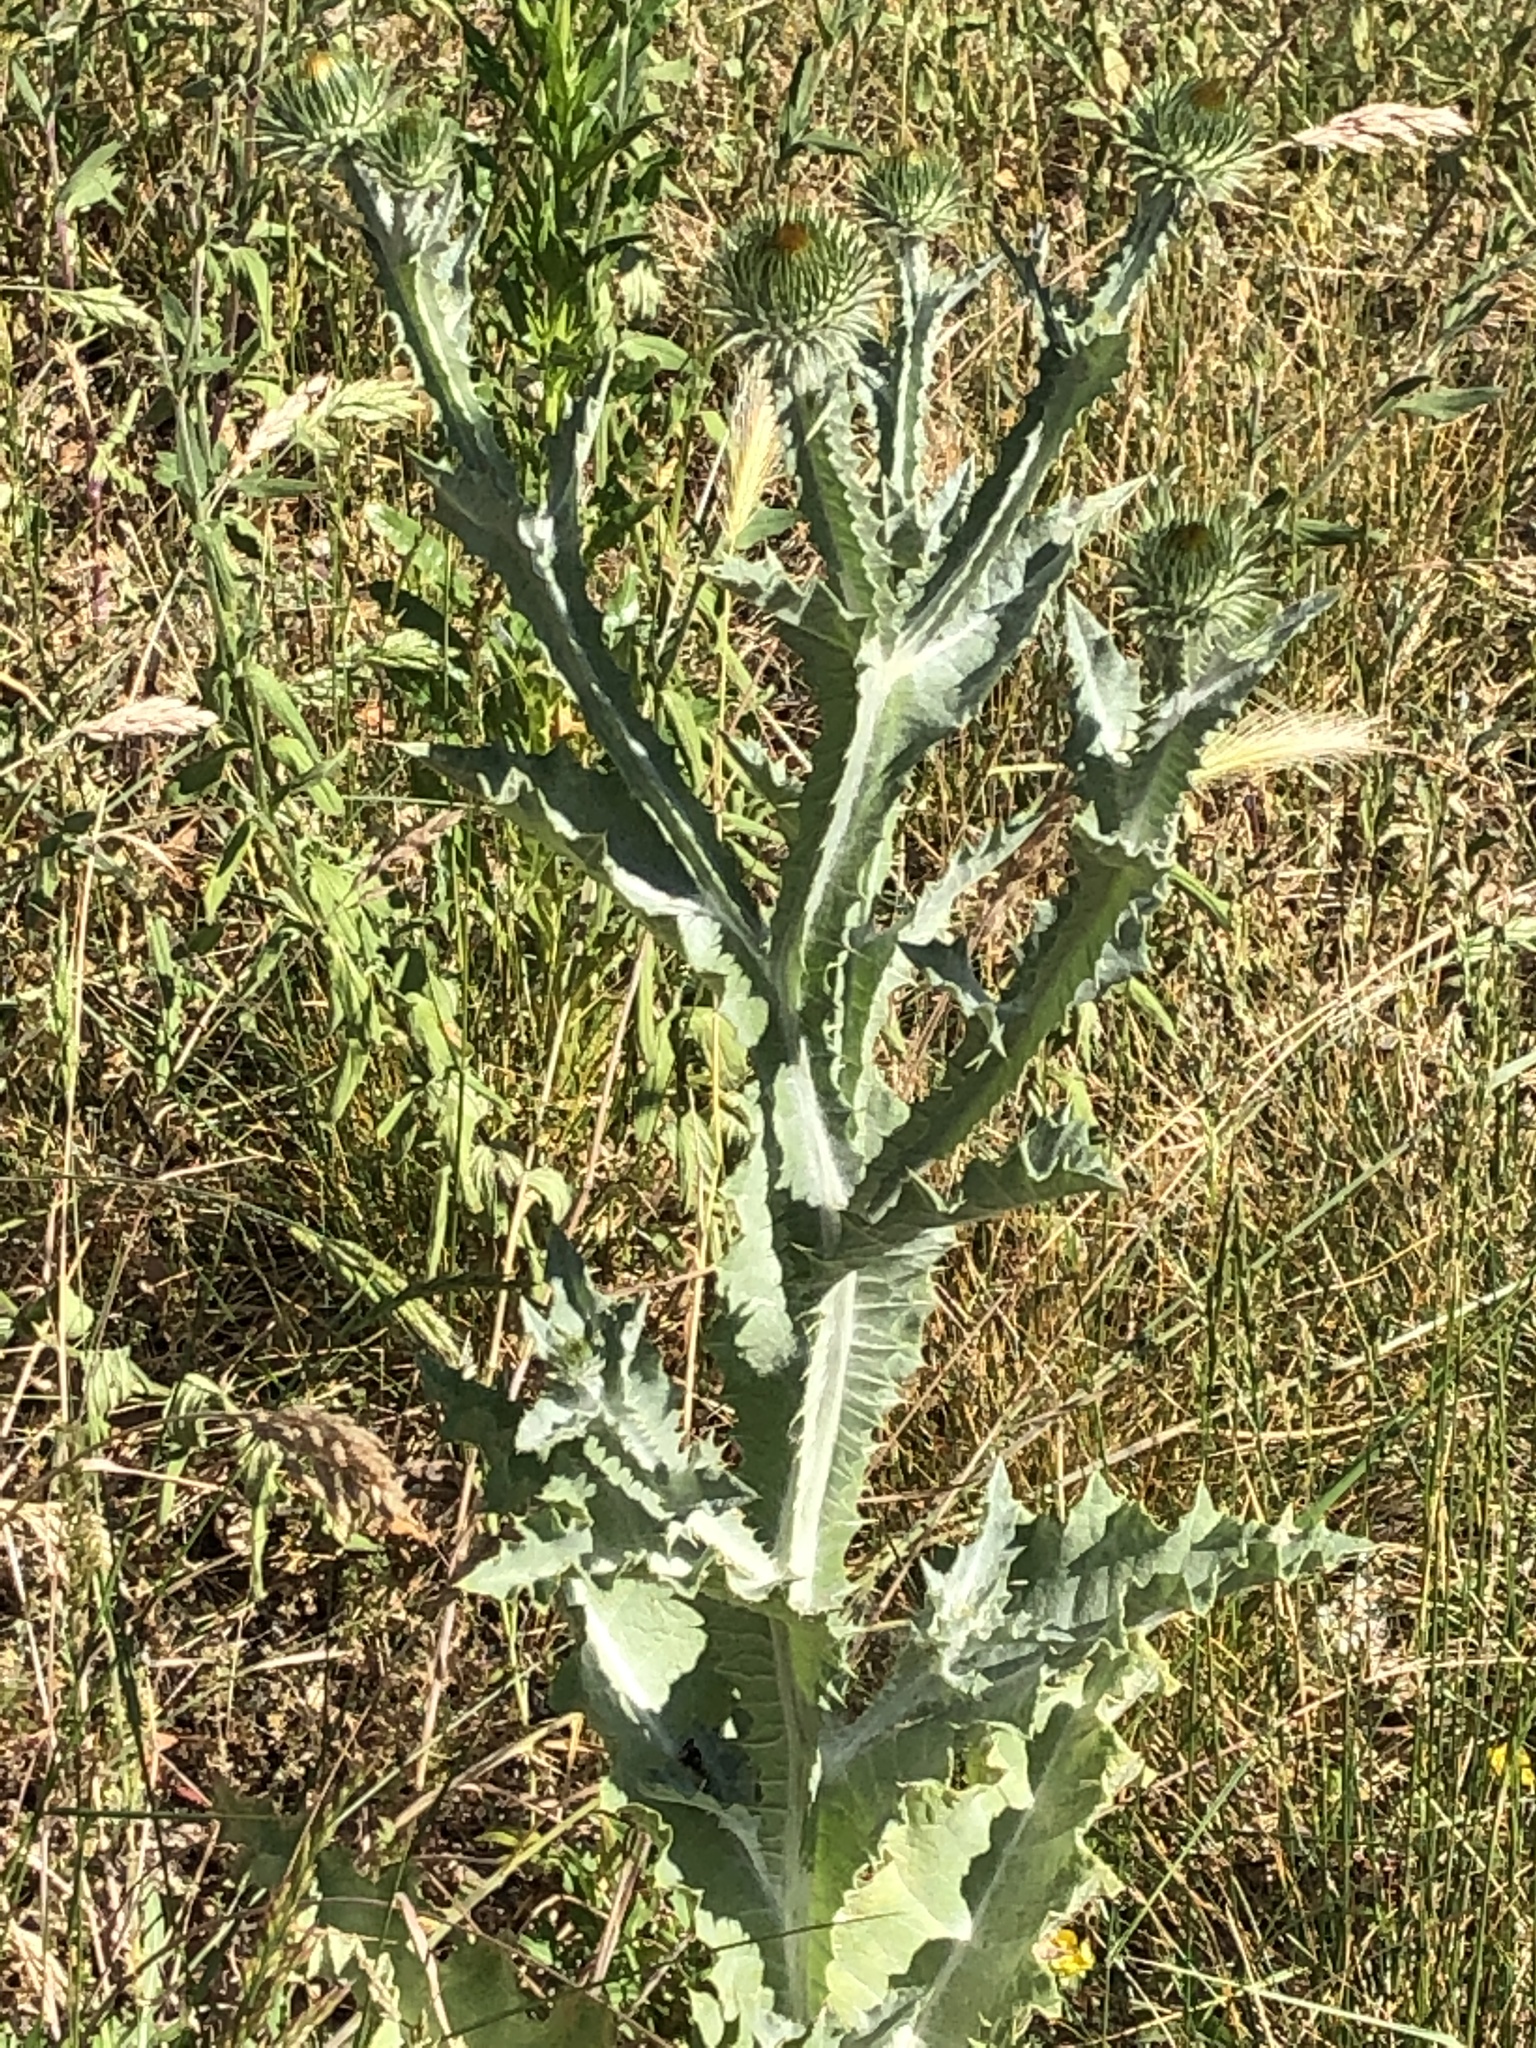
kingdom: Plantae
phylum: Tracheophyta
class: Magnoliopsida
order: Asterales
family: Asteraceae
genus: Onopordum
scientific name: Onopordum acanthium
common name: Scotch thistle
